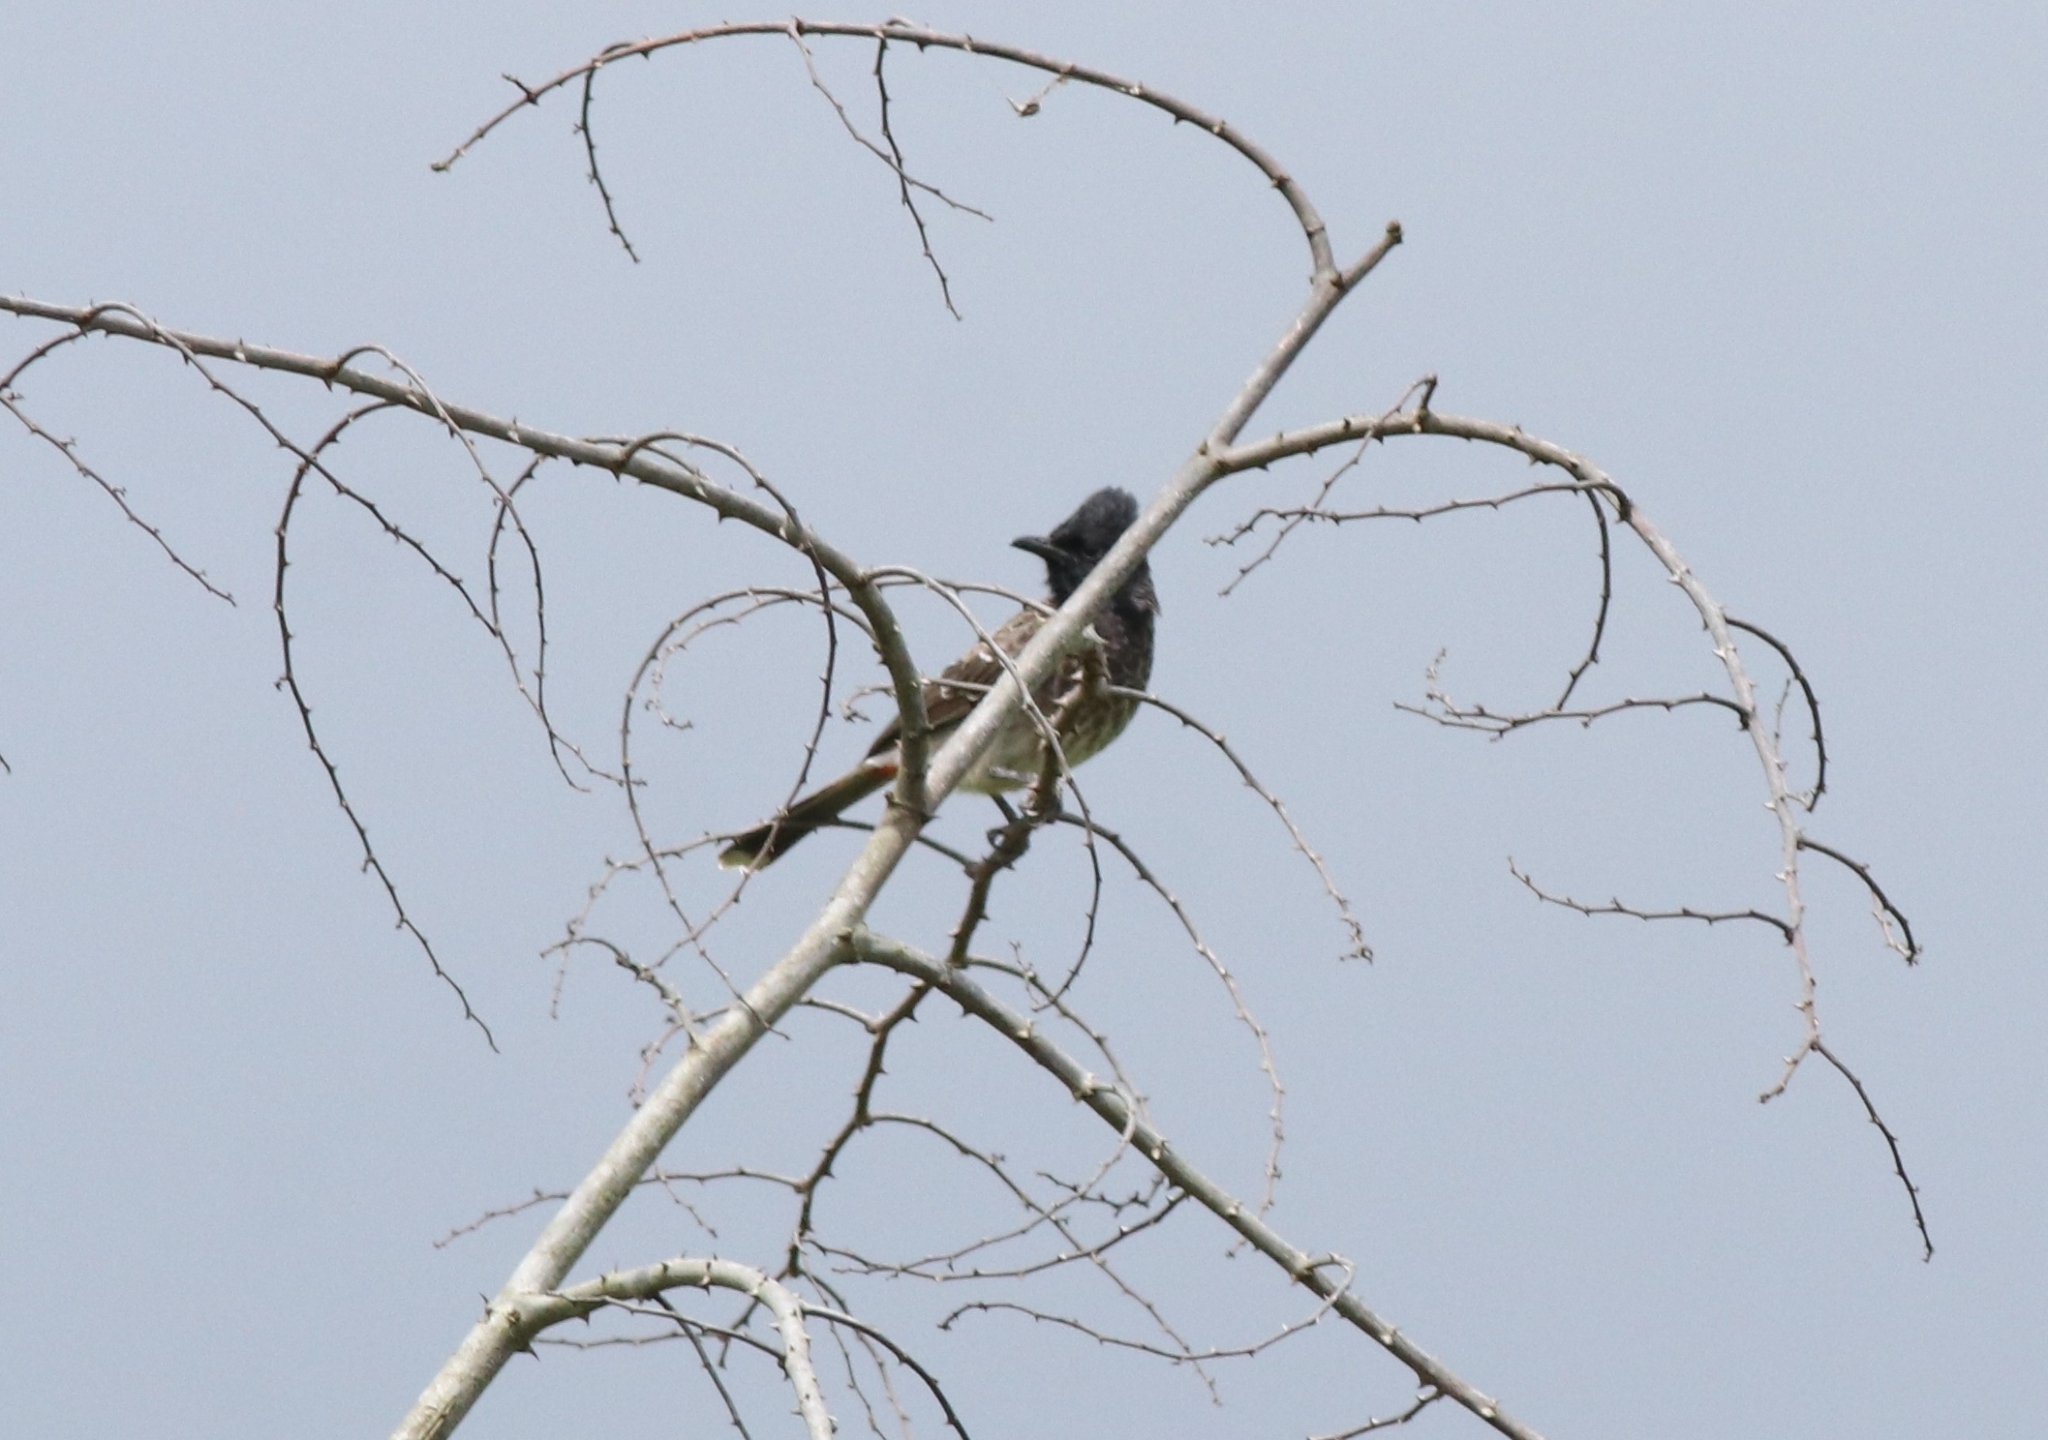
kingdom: Animalia
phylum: Chordata
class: Aves
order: Passeriformes
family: Pycnonotidae
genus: Pycnonotus
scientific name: Pycnonotus cafer
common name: Red-vented bulbul
